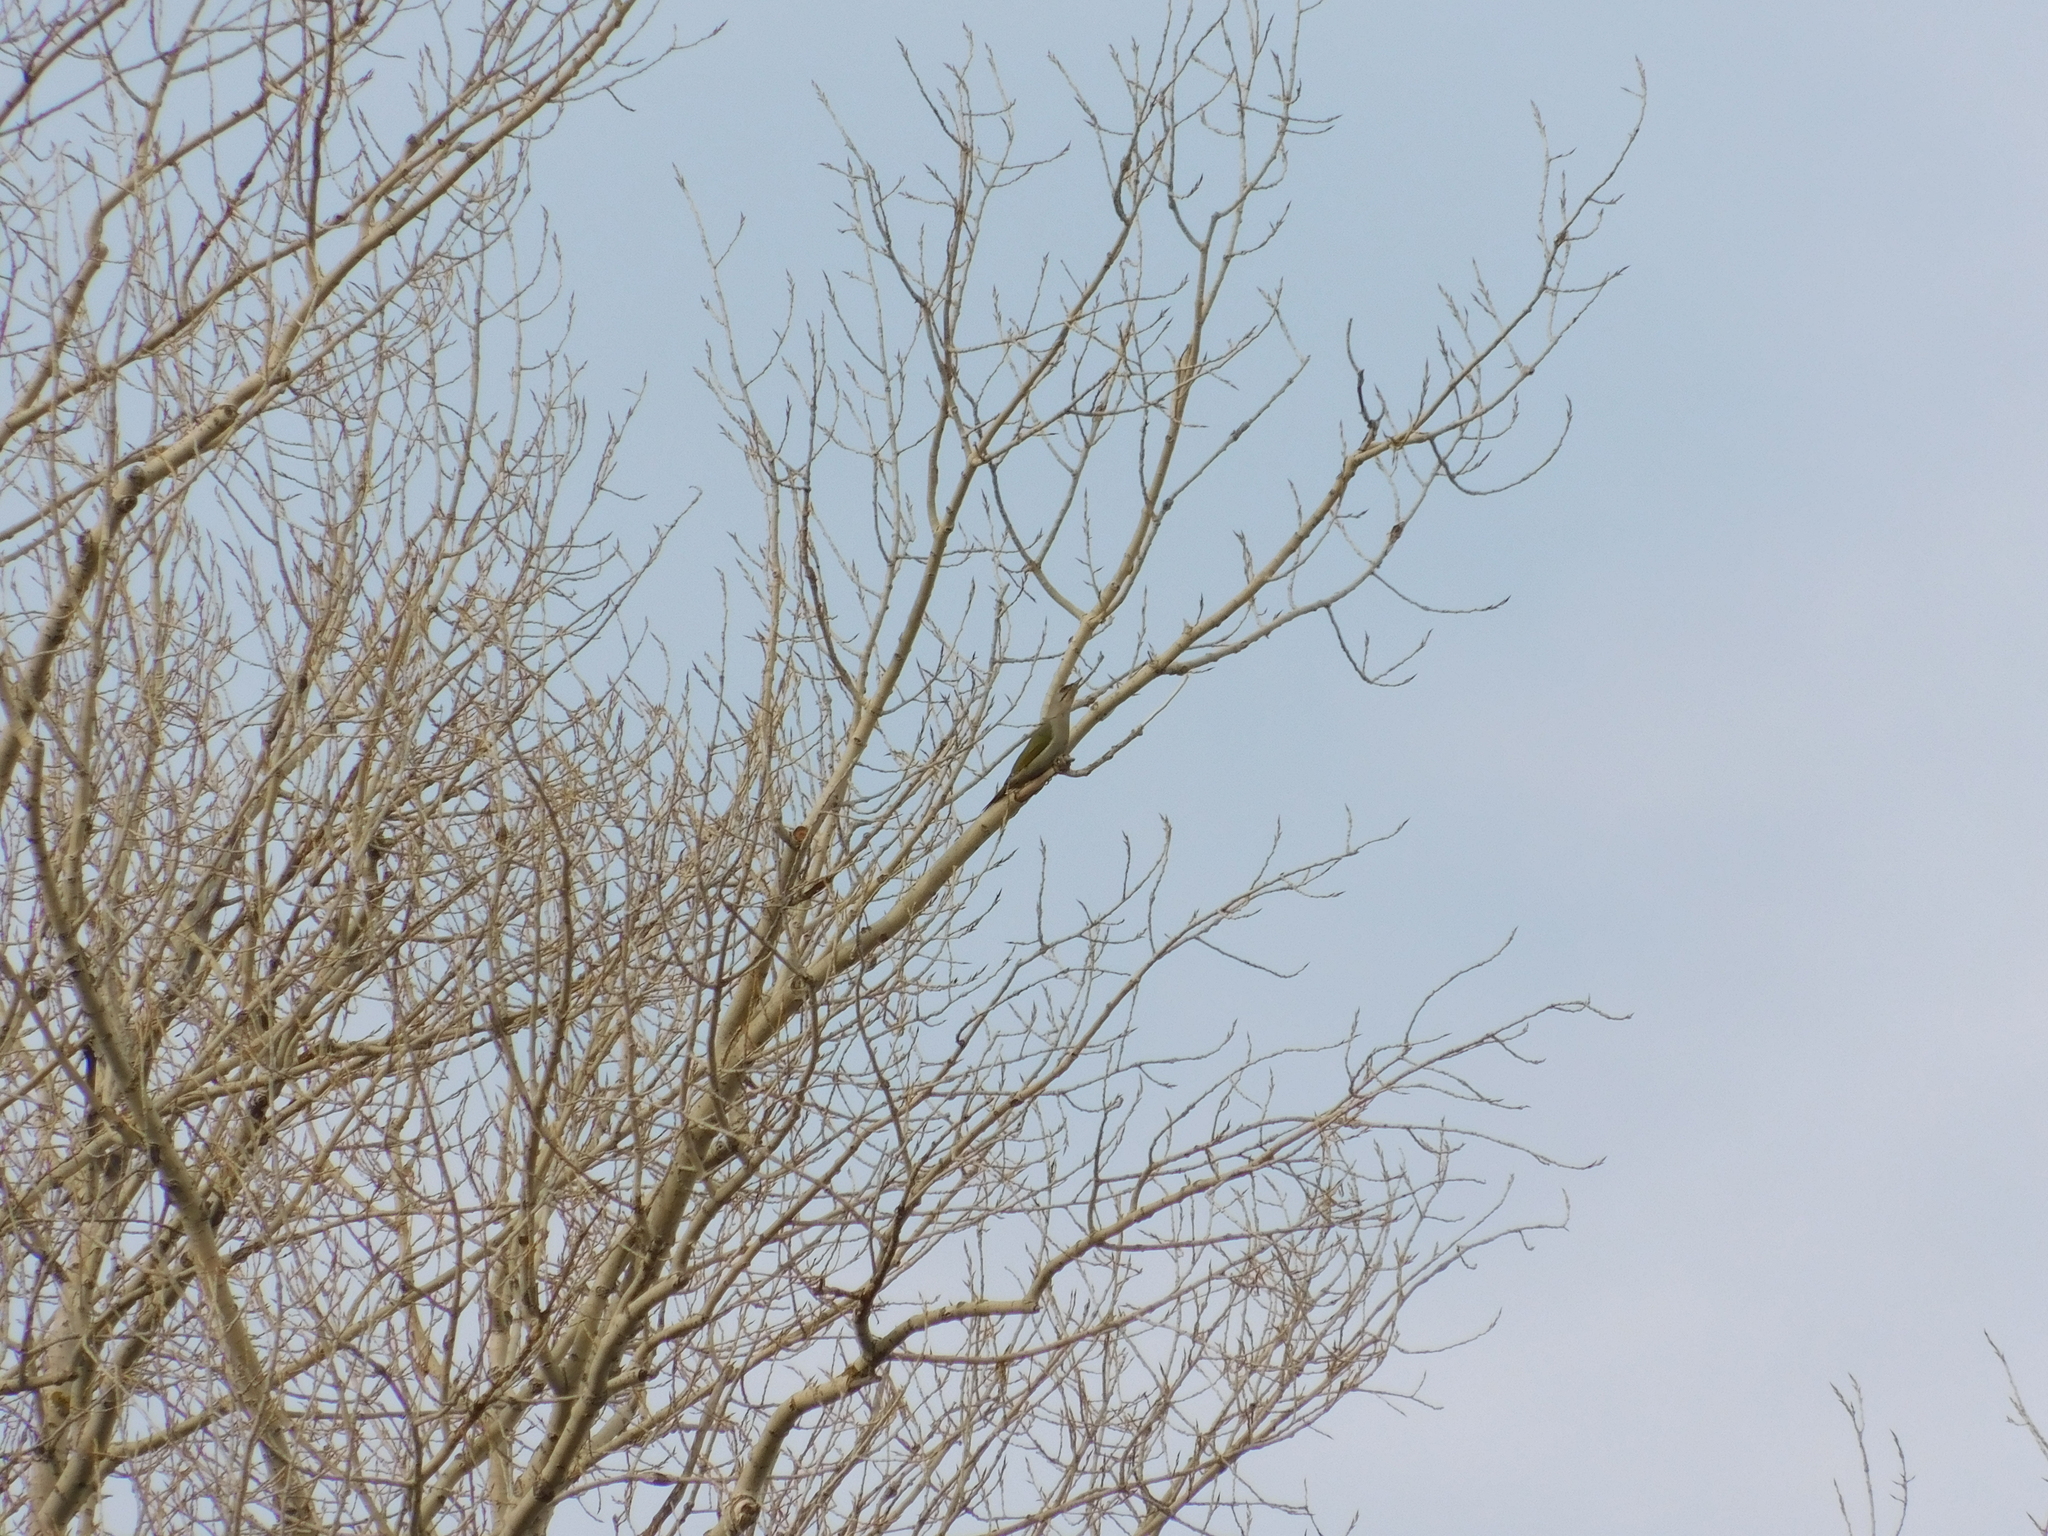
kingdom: Animalia
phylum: Chordata
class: Aves
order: Piciformes
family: Picidae
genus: Picus
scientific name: Picus canus
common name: Grey-headed woodpecker
